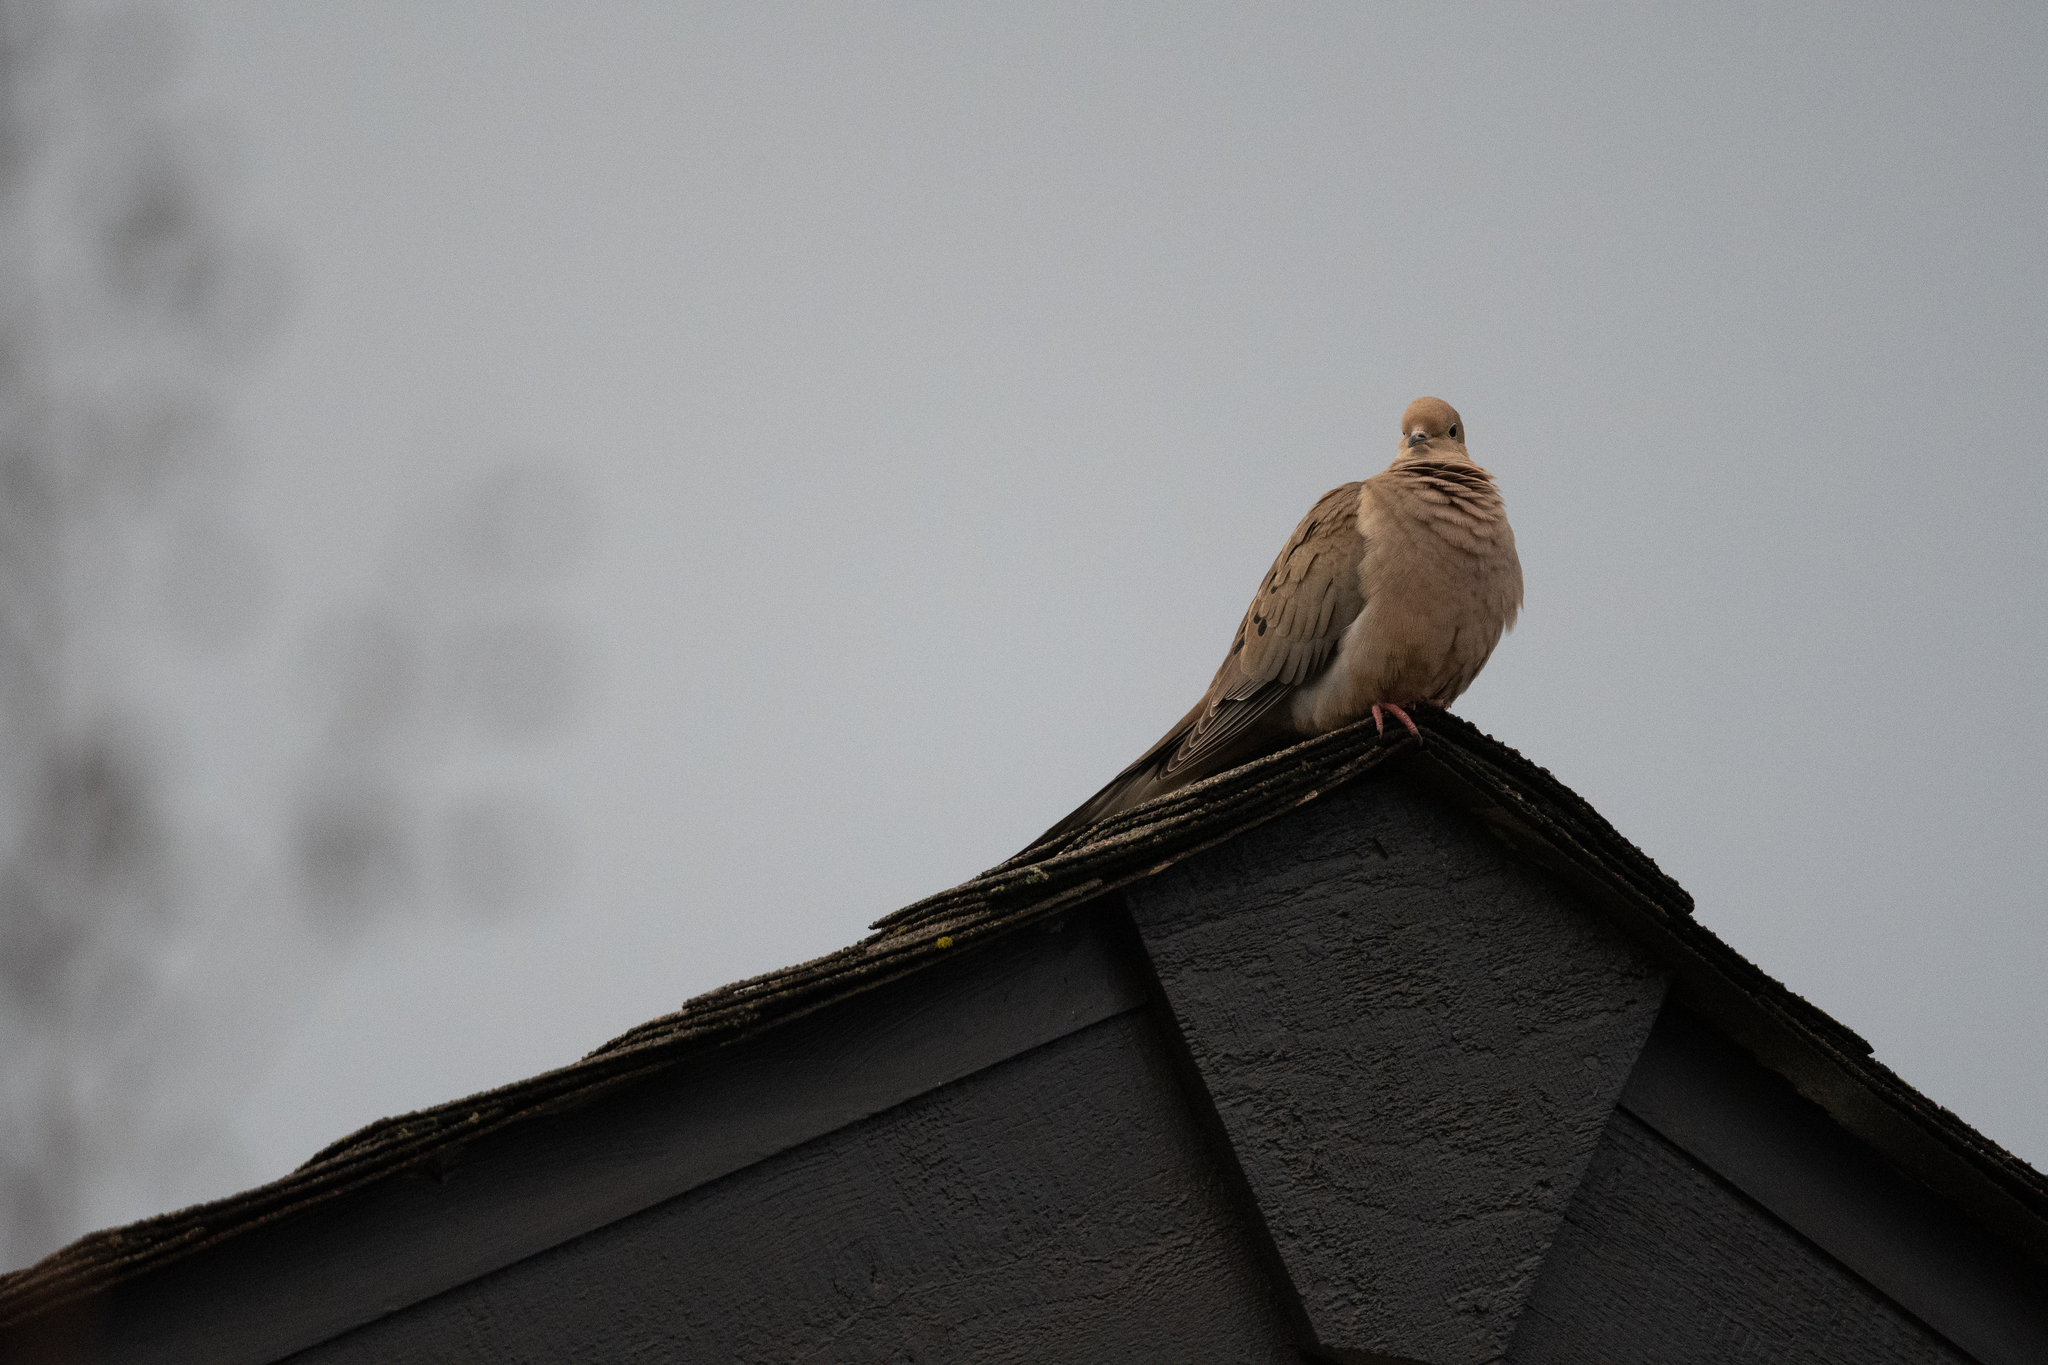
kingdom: Animalia
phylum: Chordata
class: Aves
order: Columbiformes
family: Columbidae
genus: Zenaida
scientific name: Zenaida macroura
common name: Mourning dove
